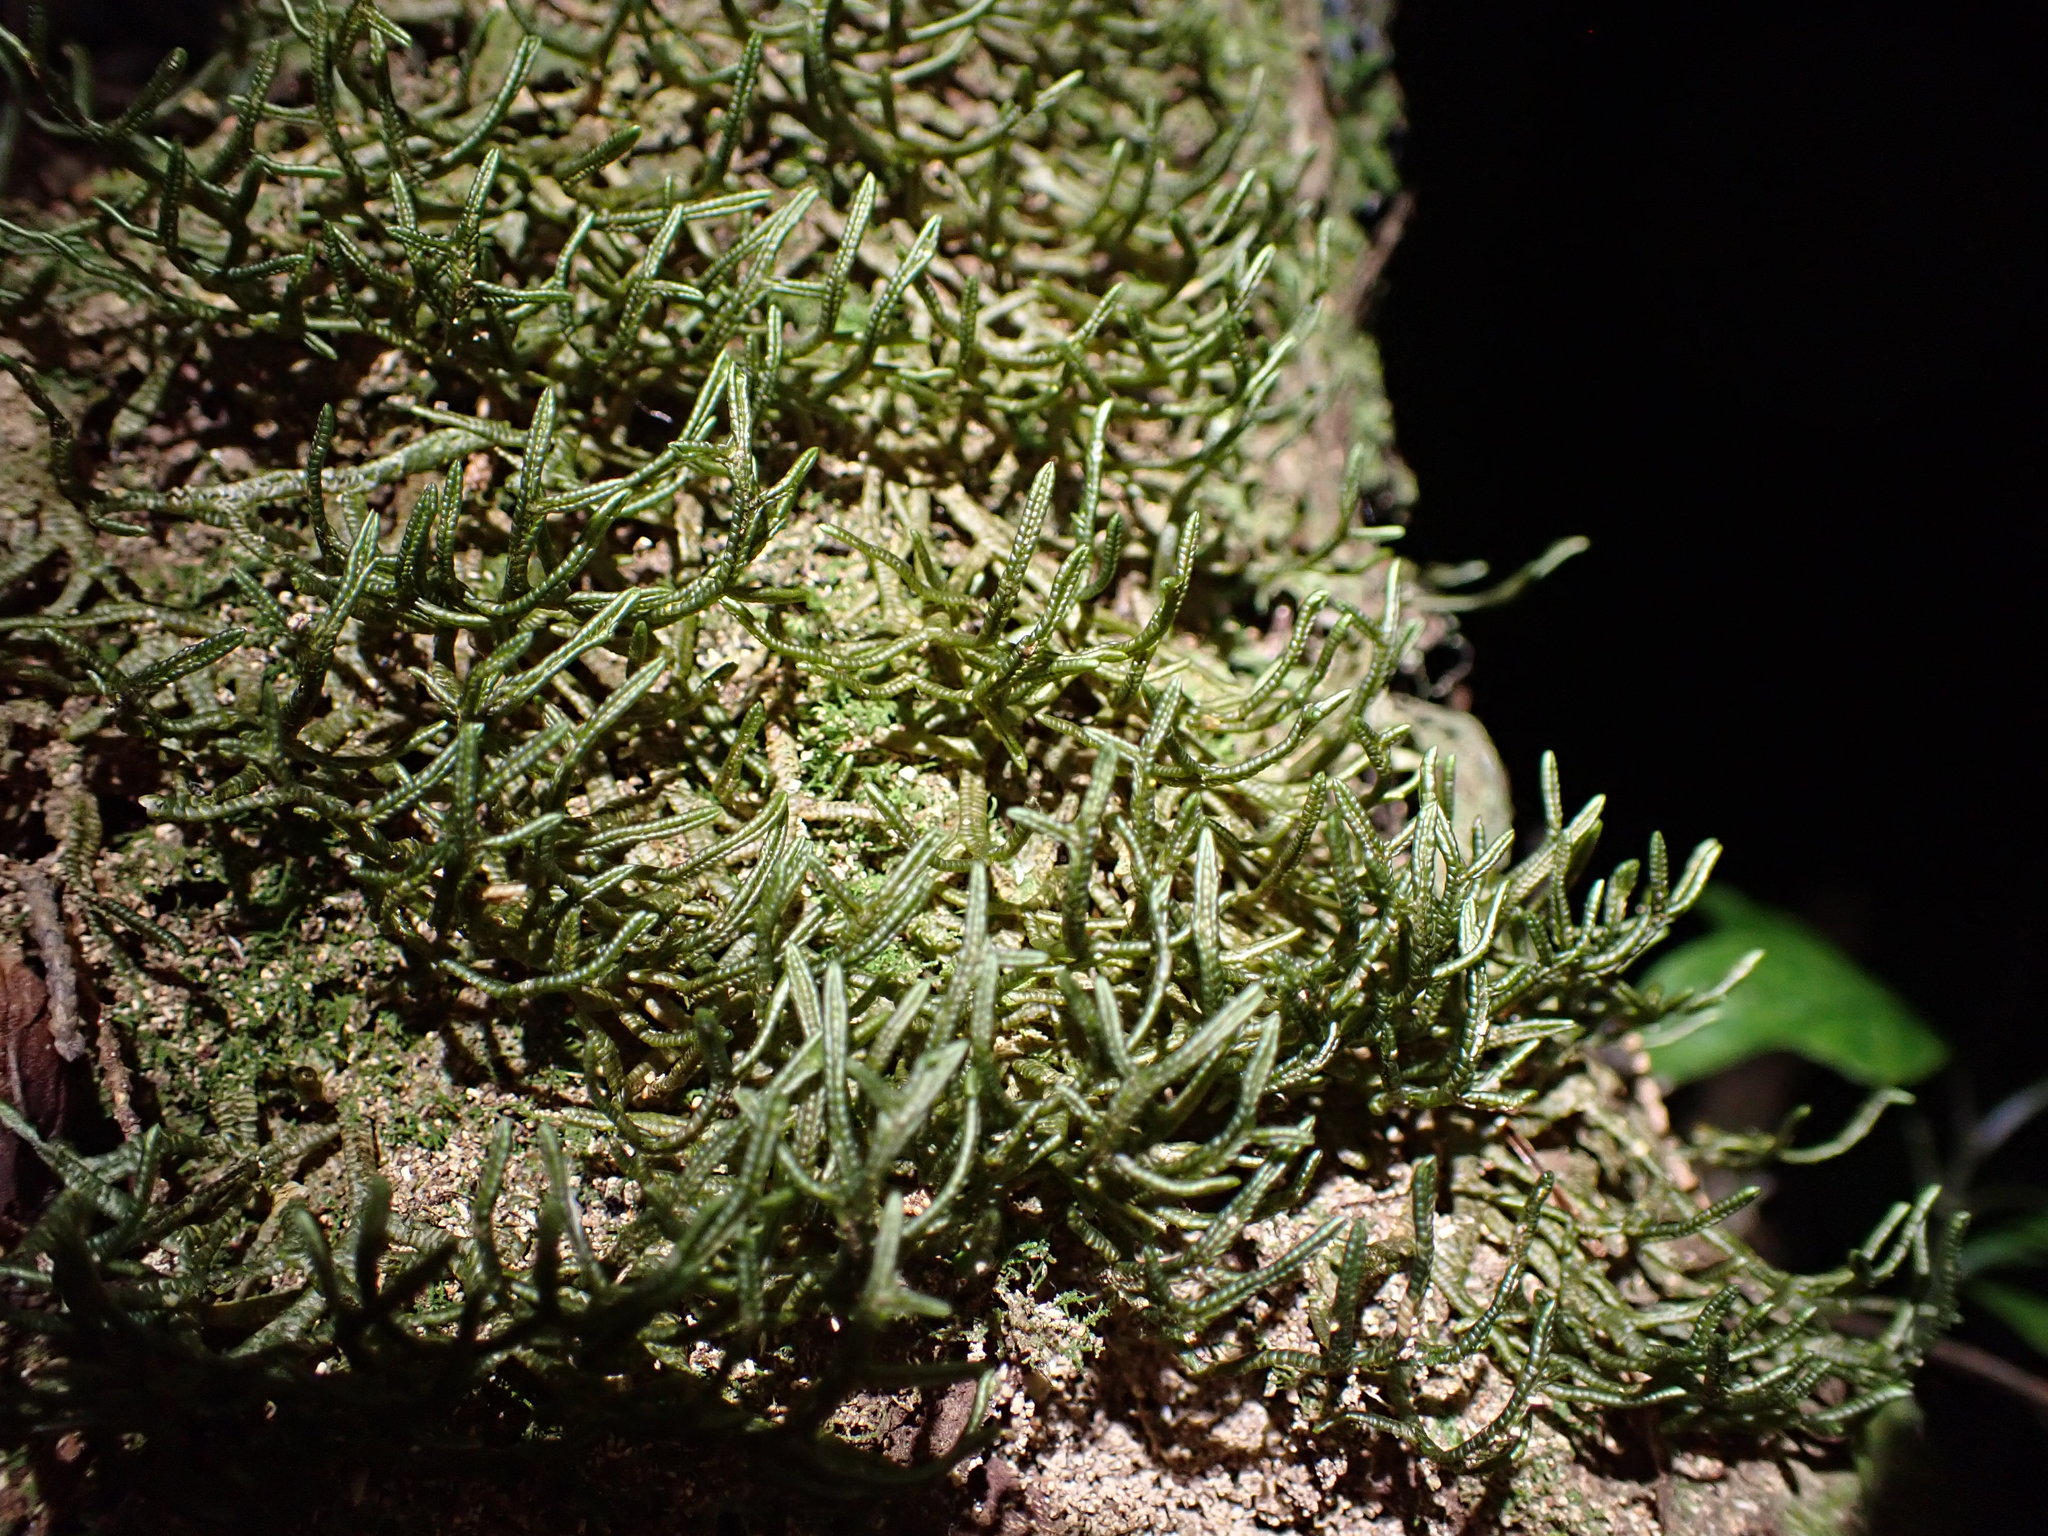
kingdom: Plantae
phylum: Marchantiophyta
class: Jungermanniopsida
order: Porellales
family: Porellaceae
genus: Porella
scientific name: Porella elegantula
